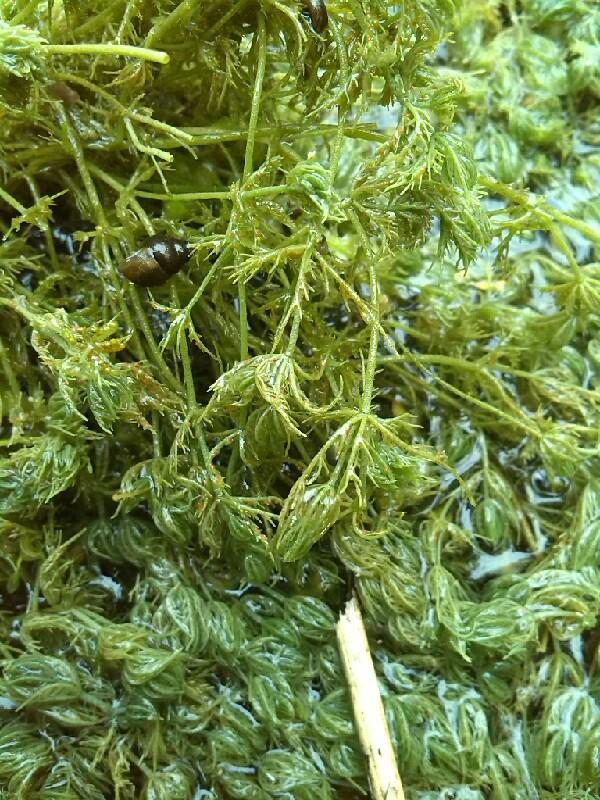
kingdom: Plantae
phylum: Charophyta
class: Charophyceae
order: Charales
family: Characeae
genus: Chara
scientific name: Chara vulgaris
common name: Common stonewort
